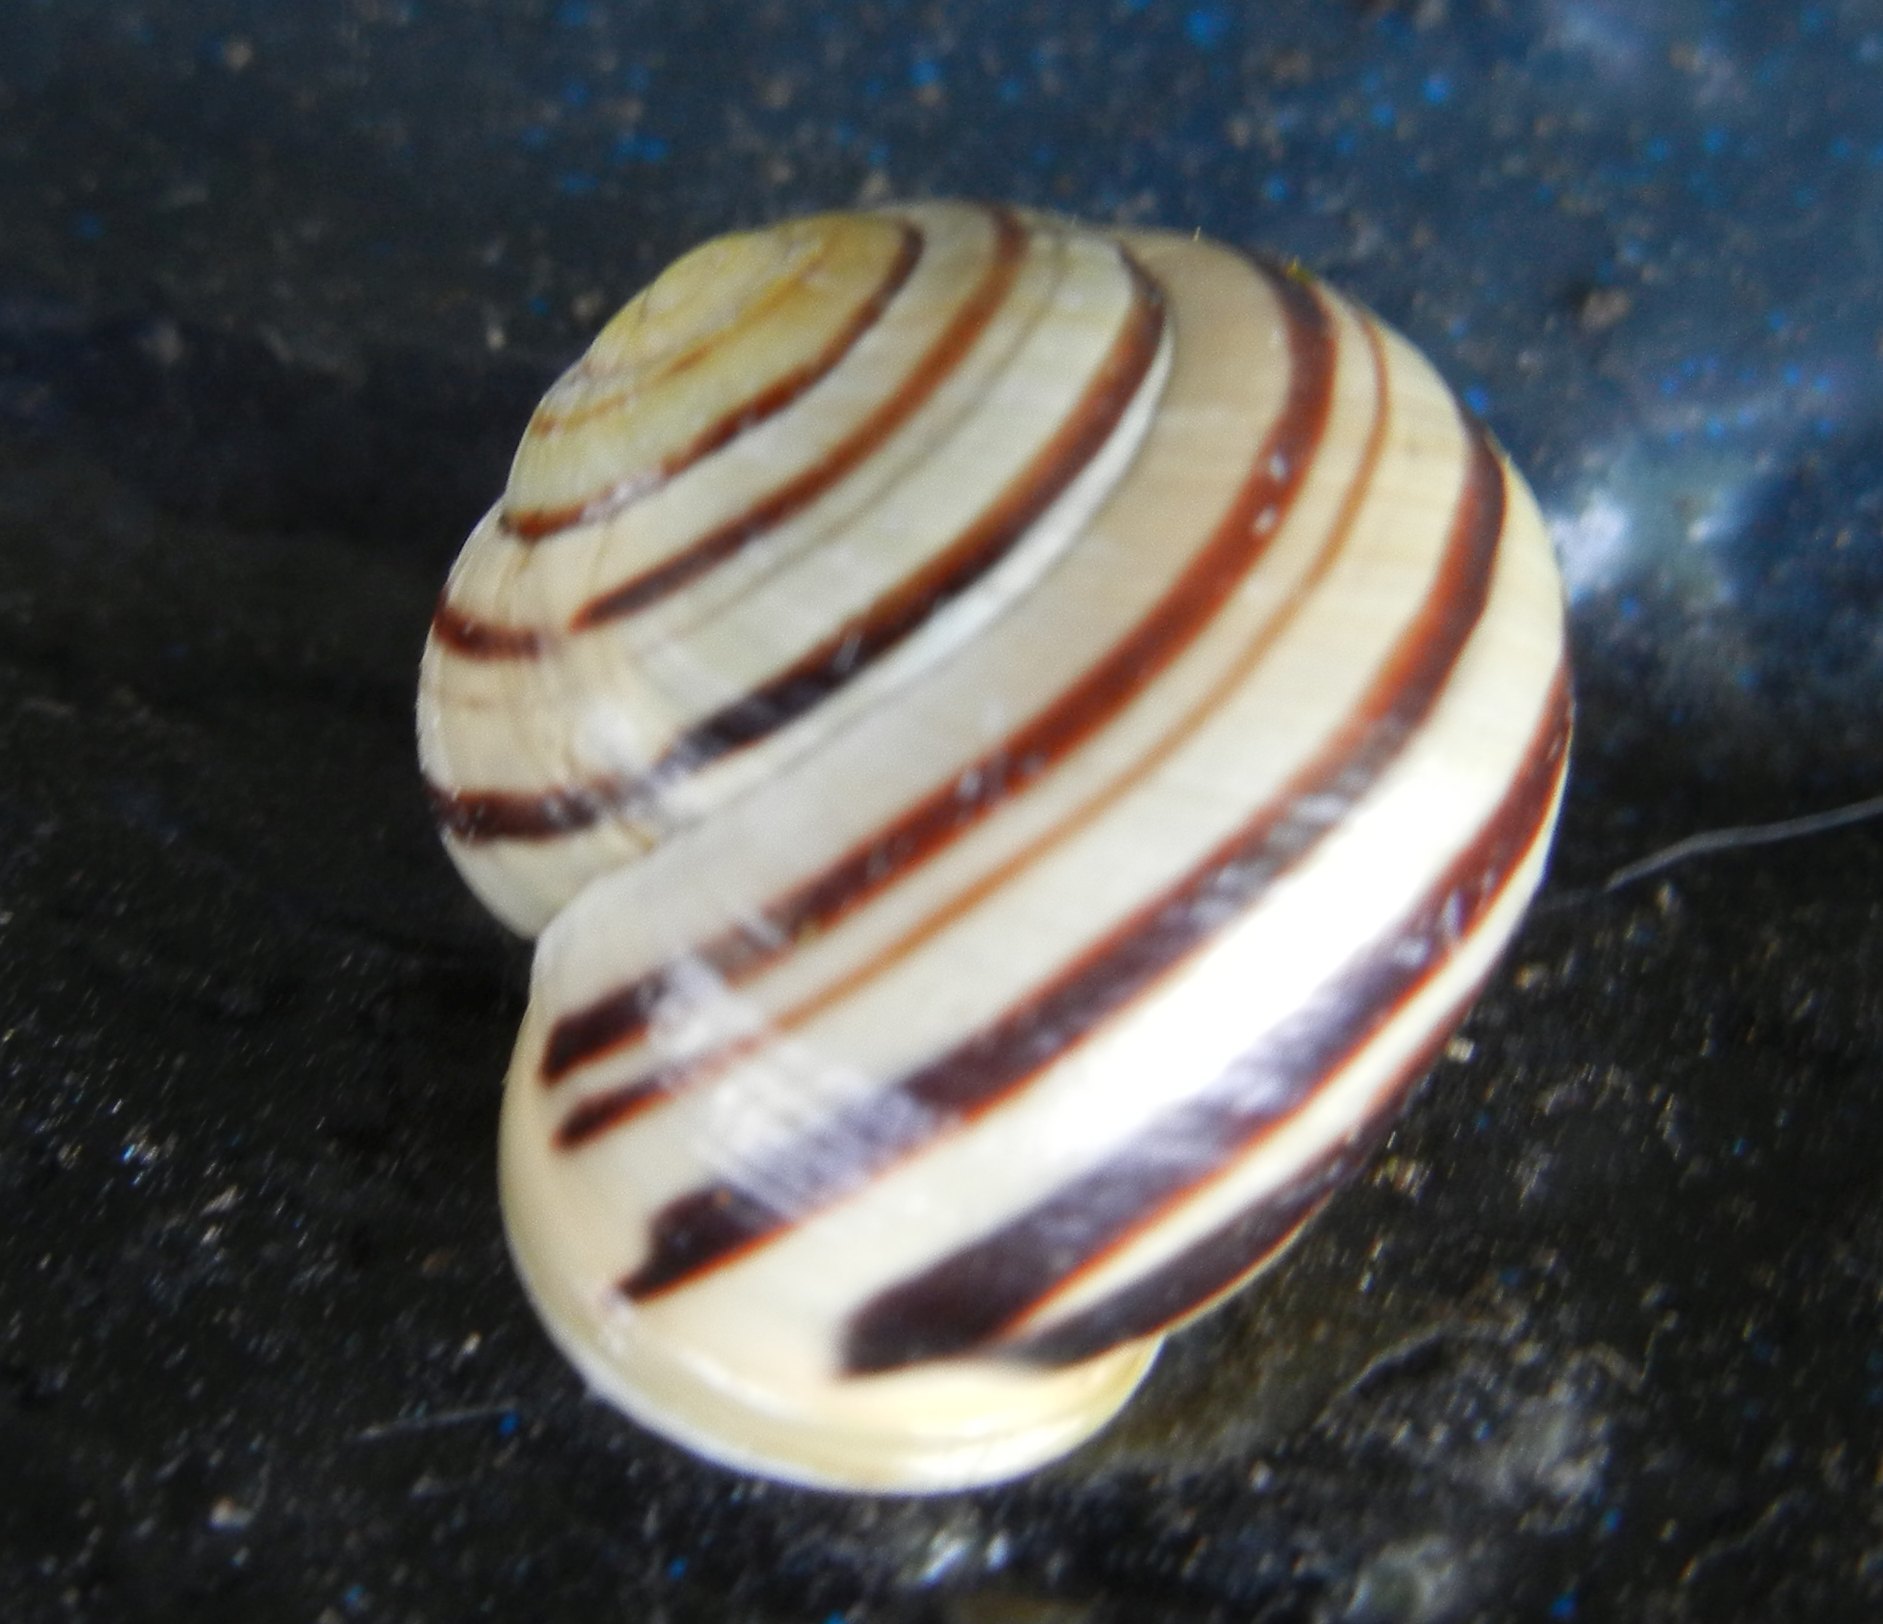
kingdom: Animalia
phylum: Mollusca
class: Gastropoda
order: Stylommatophora
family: Helicidae
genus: Cepaea
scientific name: Cepaea hortensis
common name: White-lip gardensnail
